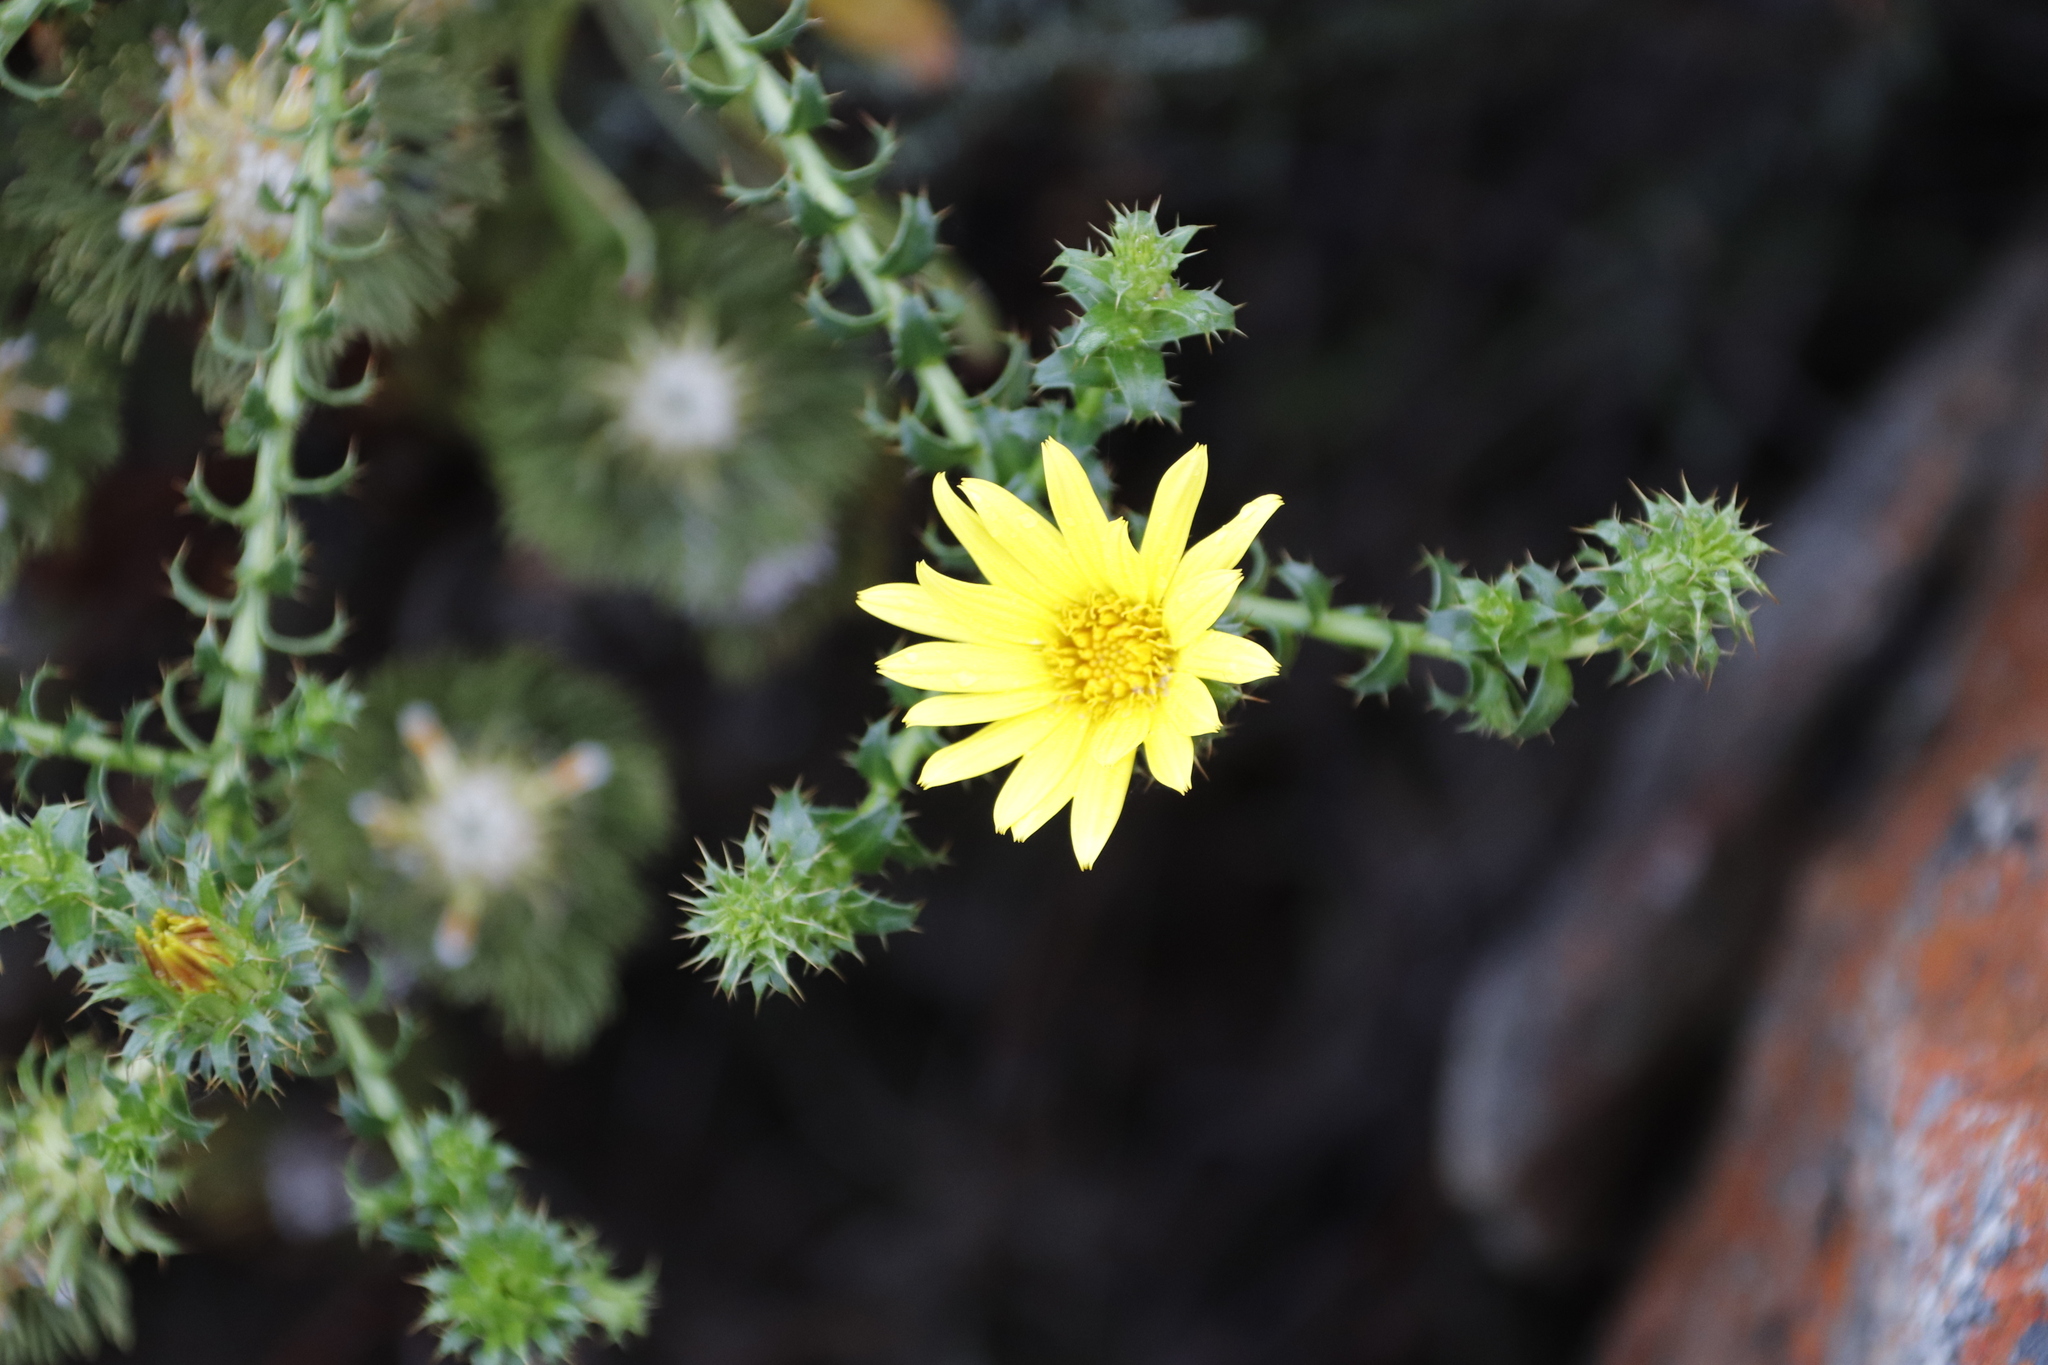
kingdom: Plantae
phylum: Tracheophyta
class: Magnoliopsida
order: Asterales
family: Asteraceae
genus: Cullumia
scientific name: Cullumia setosa
